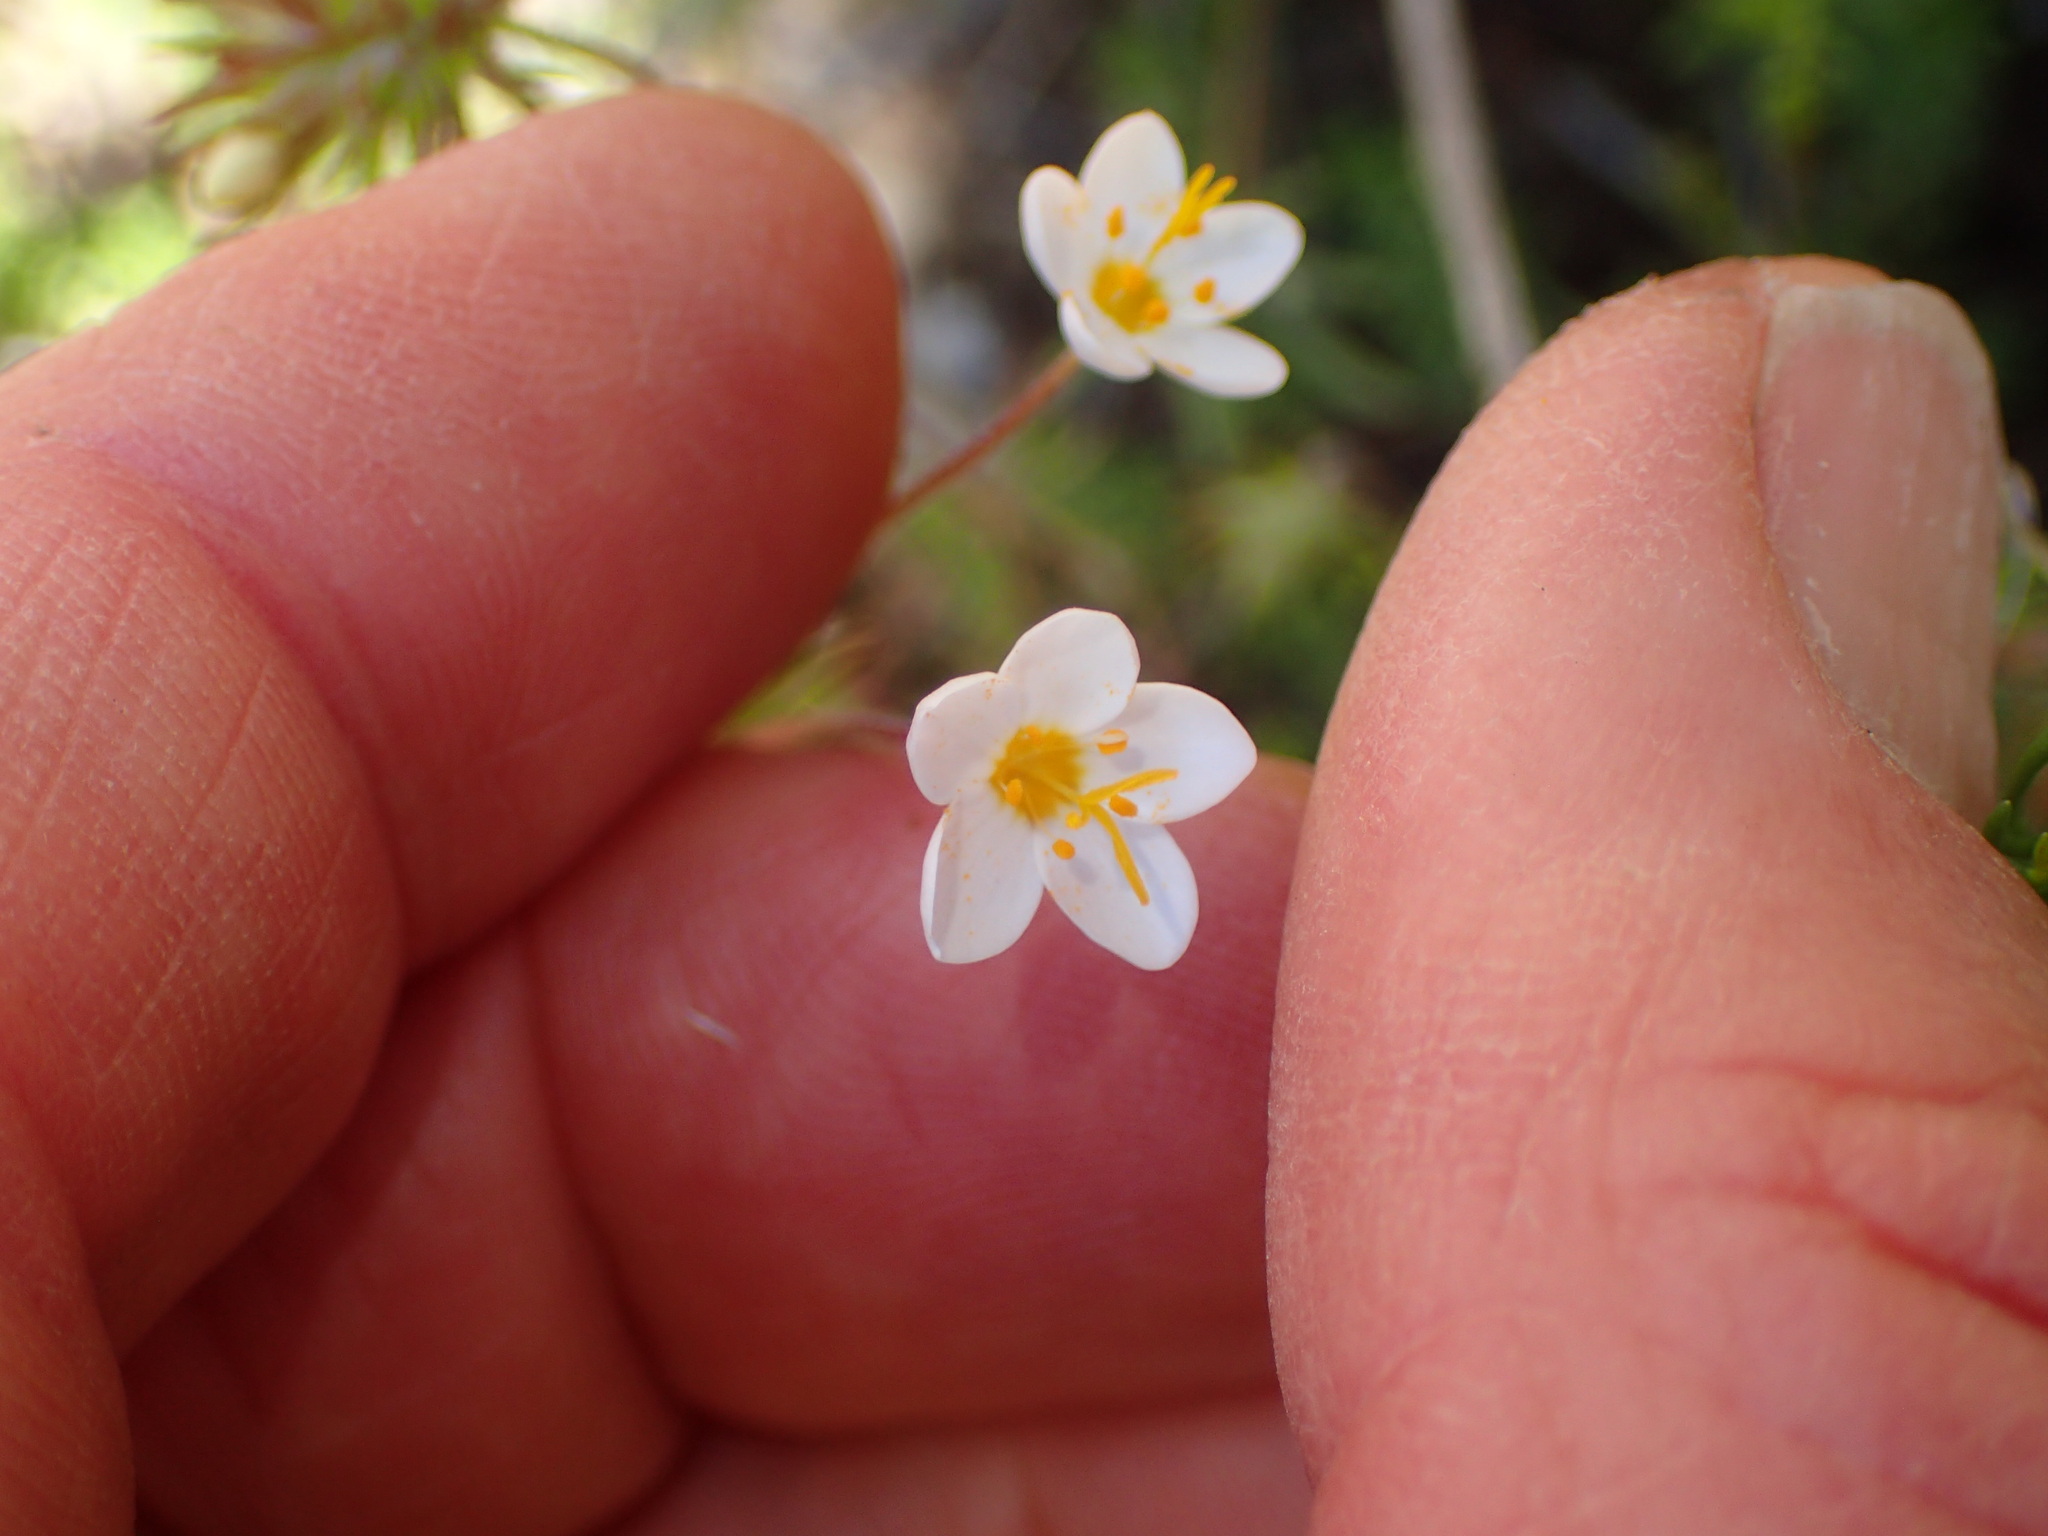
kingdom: Plantae
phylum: Tracheophyta
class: Magnoliopsida
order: Ericales
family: Polemoniaceae
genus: Leptosiphon
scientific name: Leptosiphon parviflorus
